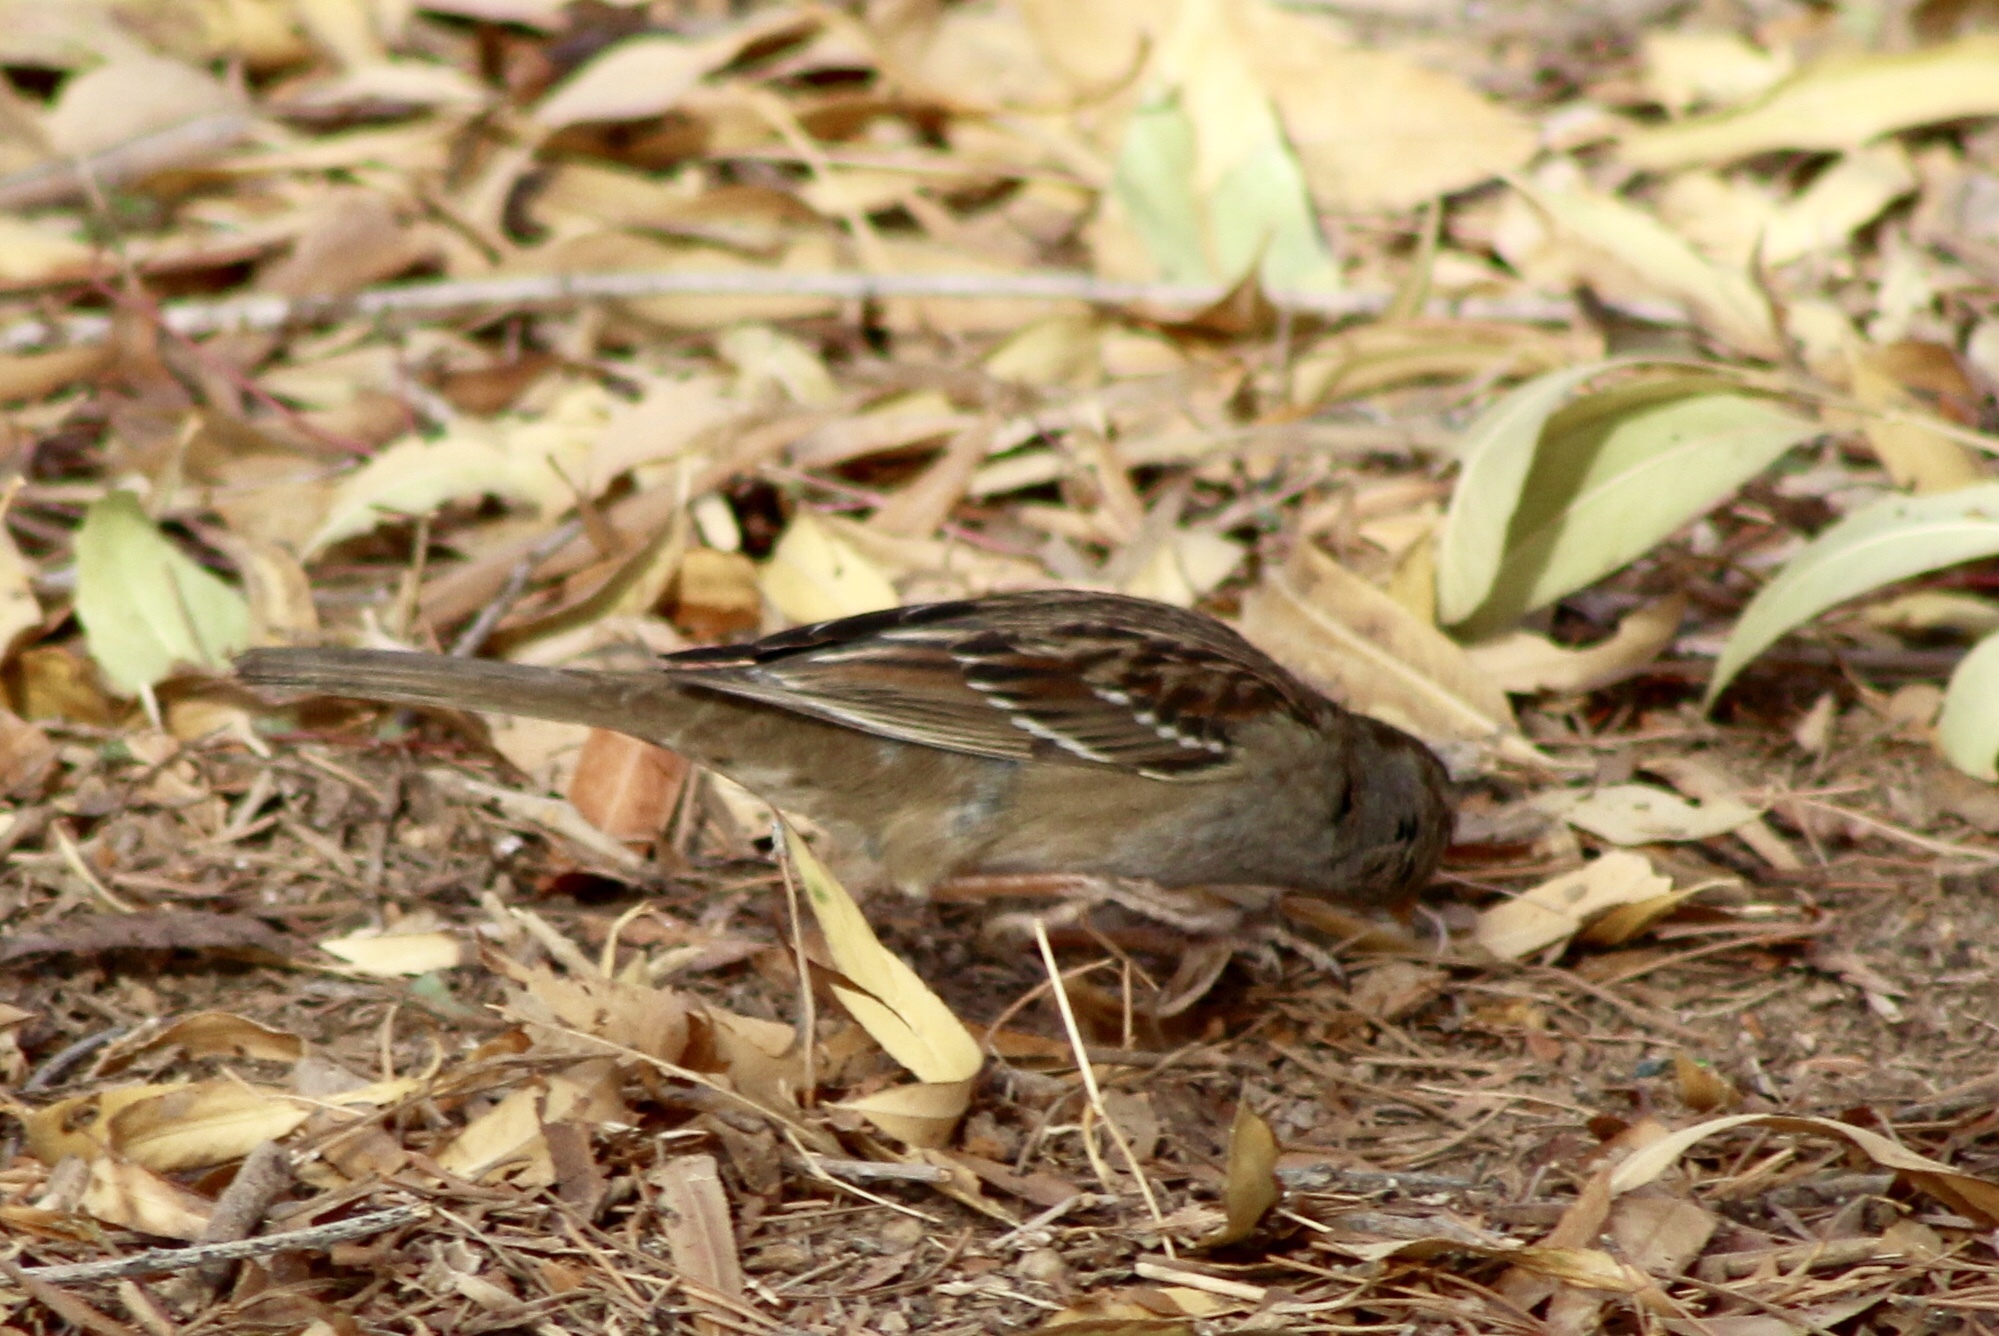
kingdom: Animalia
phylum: Chordata
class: Aves
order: Passeriformes
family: Passerellidae
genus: Zonotrichia
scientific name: Zonotrichia leucophrys
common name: White-crowned sparrow
